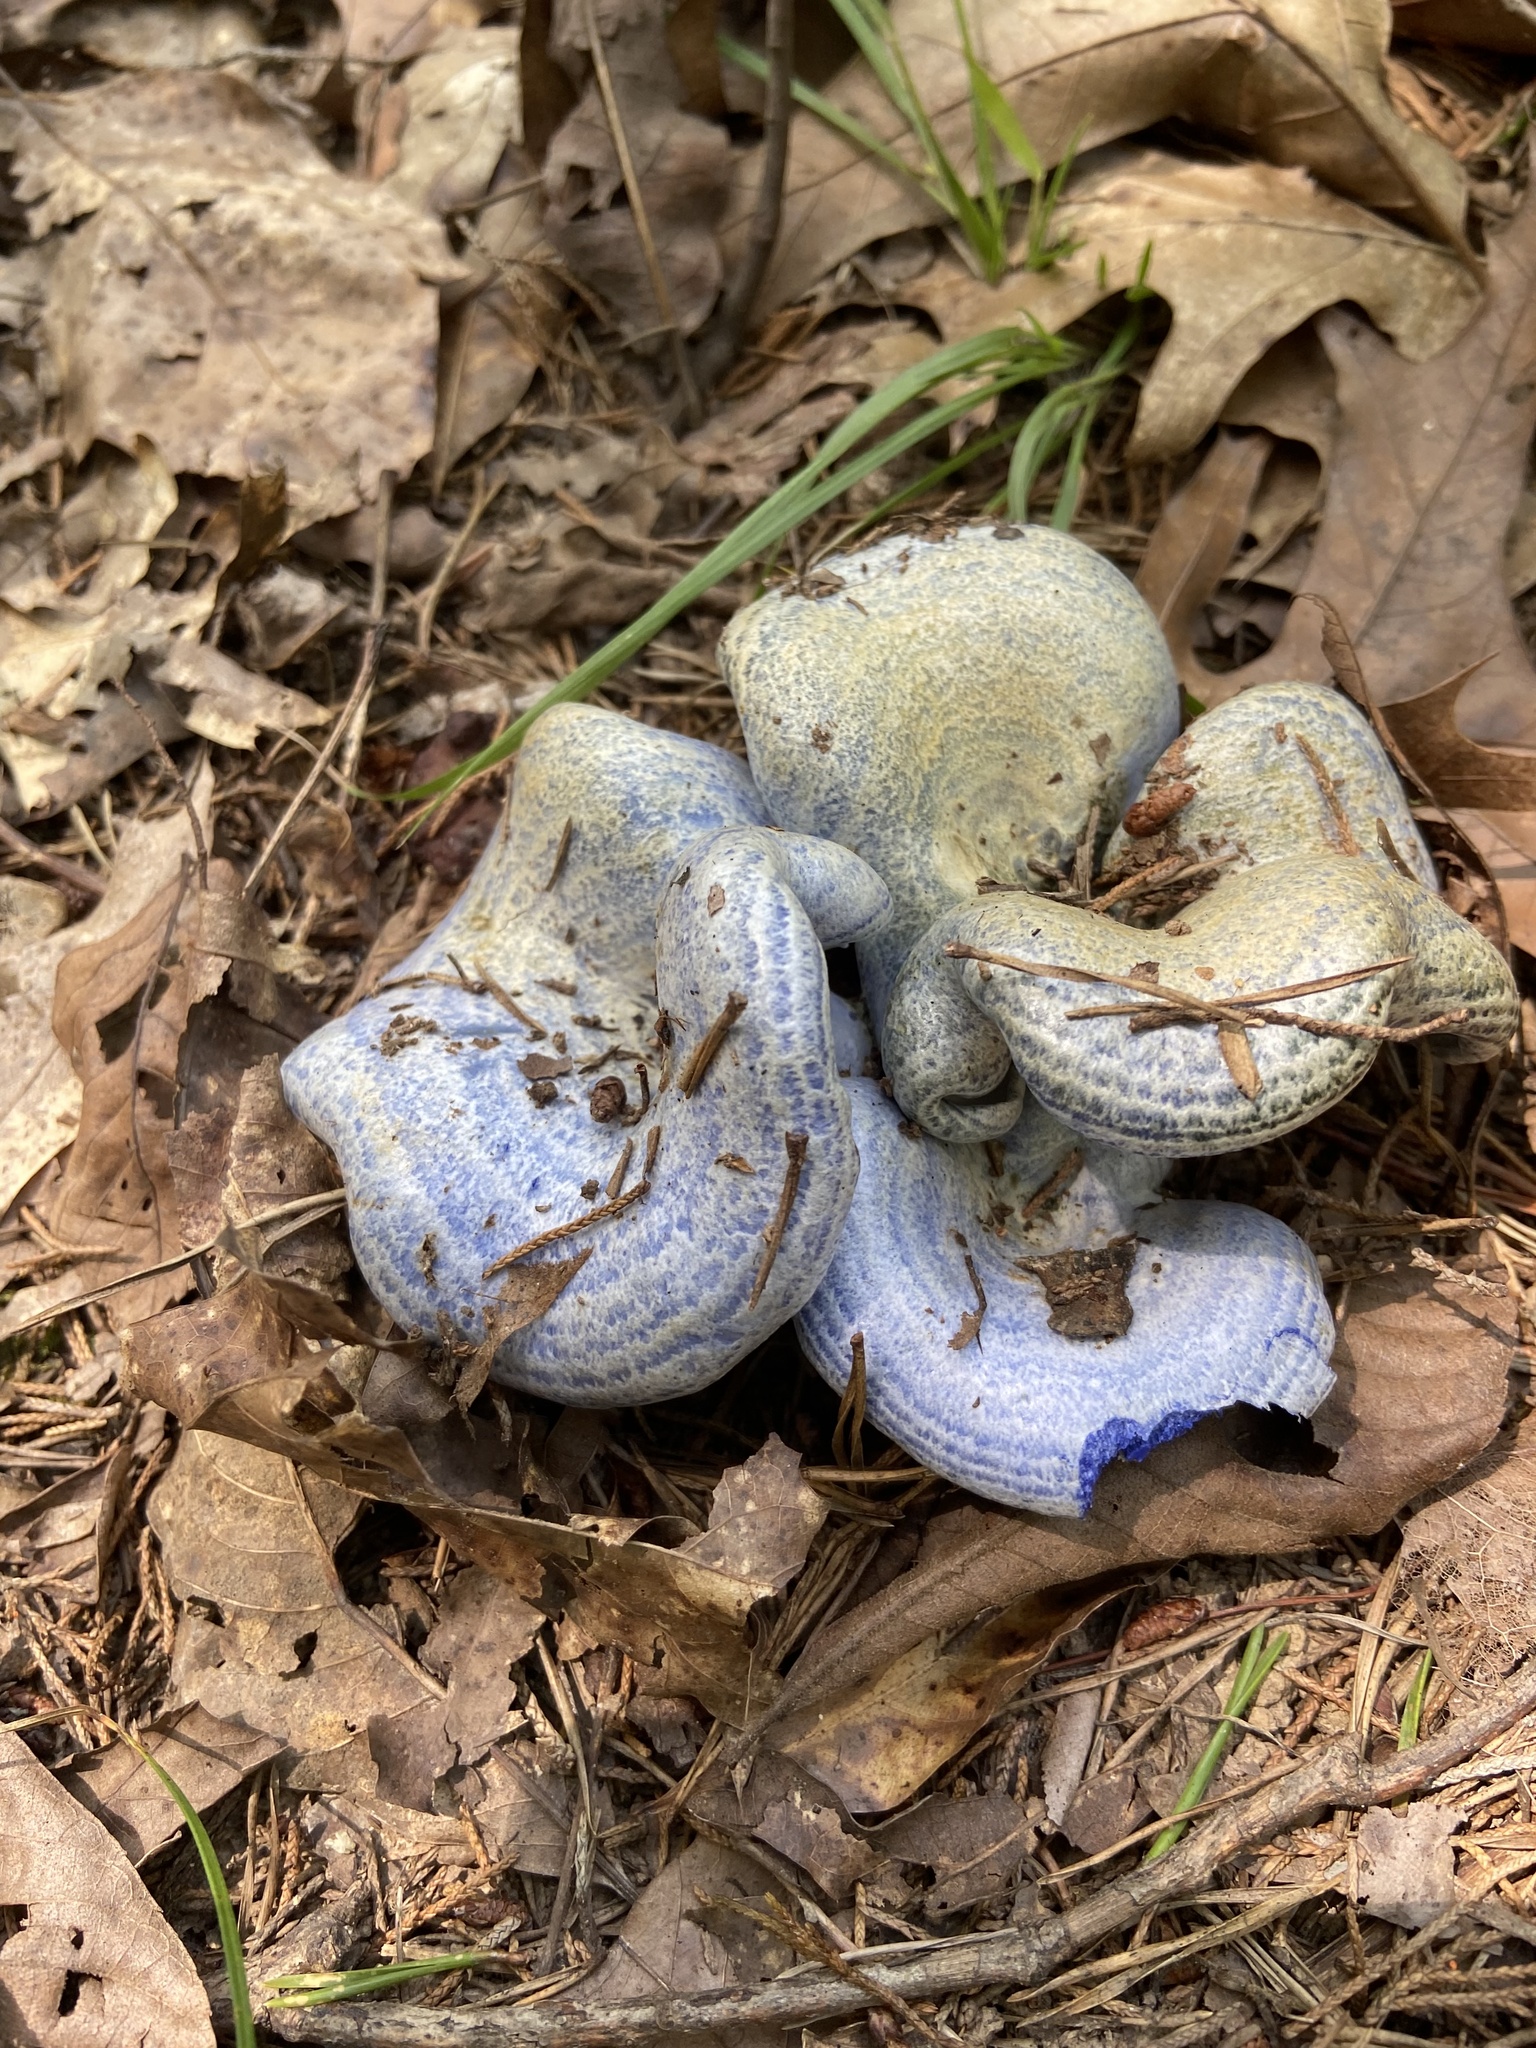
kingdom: Fungi
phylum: Basidiomycota
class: Agaricomycetes
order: Russulales
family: Russulaceae
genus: Lactarius
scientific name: Lactarius indigo
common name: Indigo milk cap
